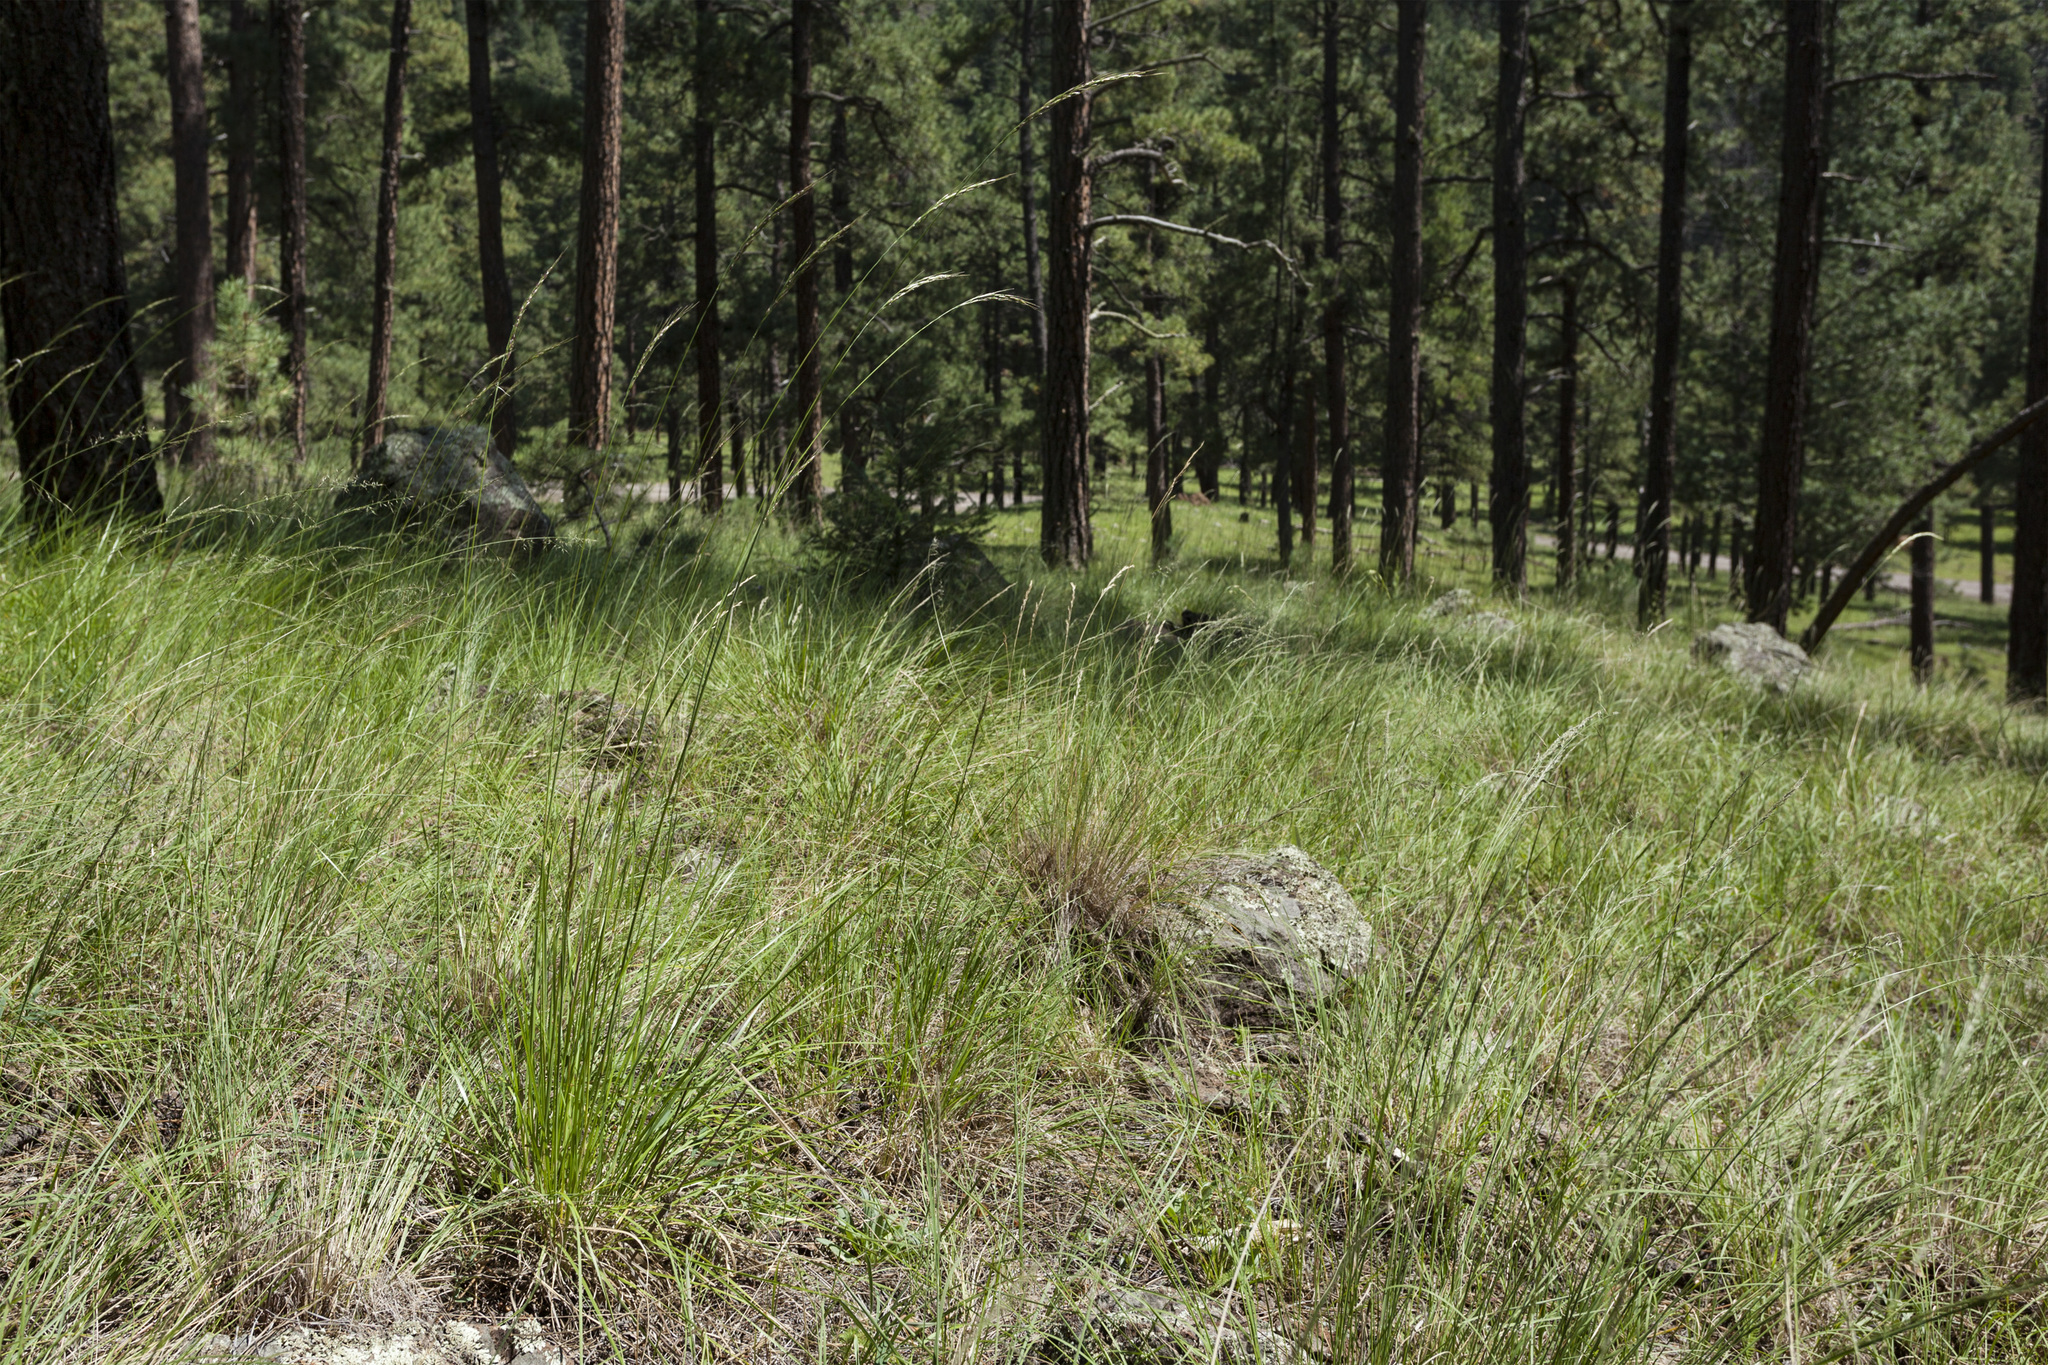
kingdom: Plantae
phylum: Tracheophyta
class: Liliopsida
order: Poales
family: Poaceae
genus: Piptochaetium
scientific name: Piptochaetium pringlei
